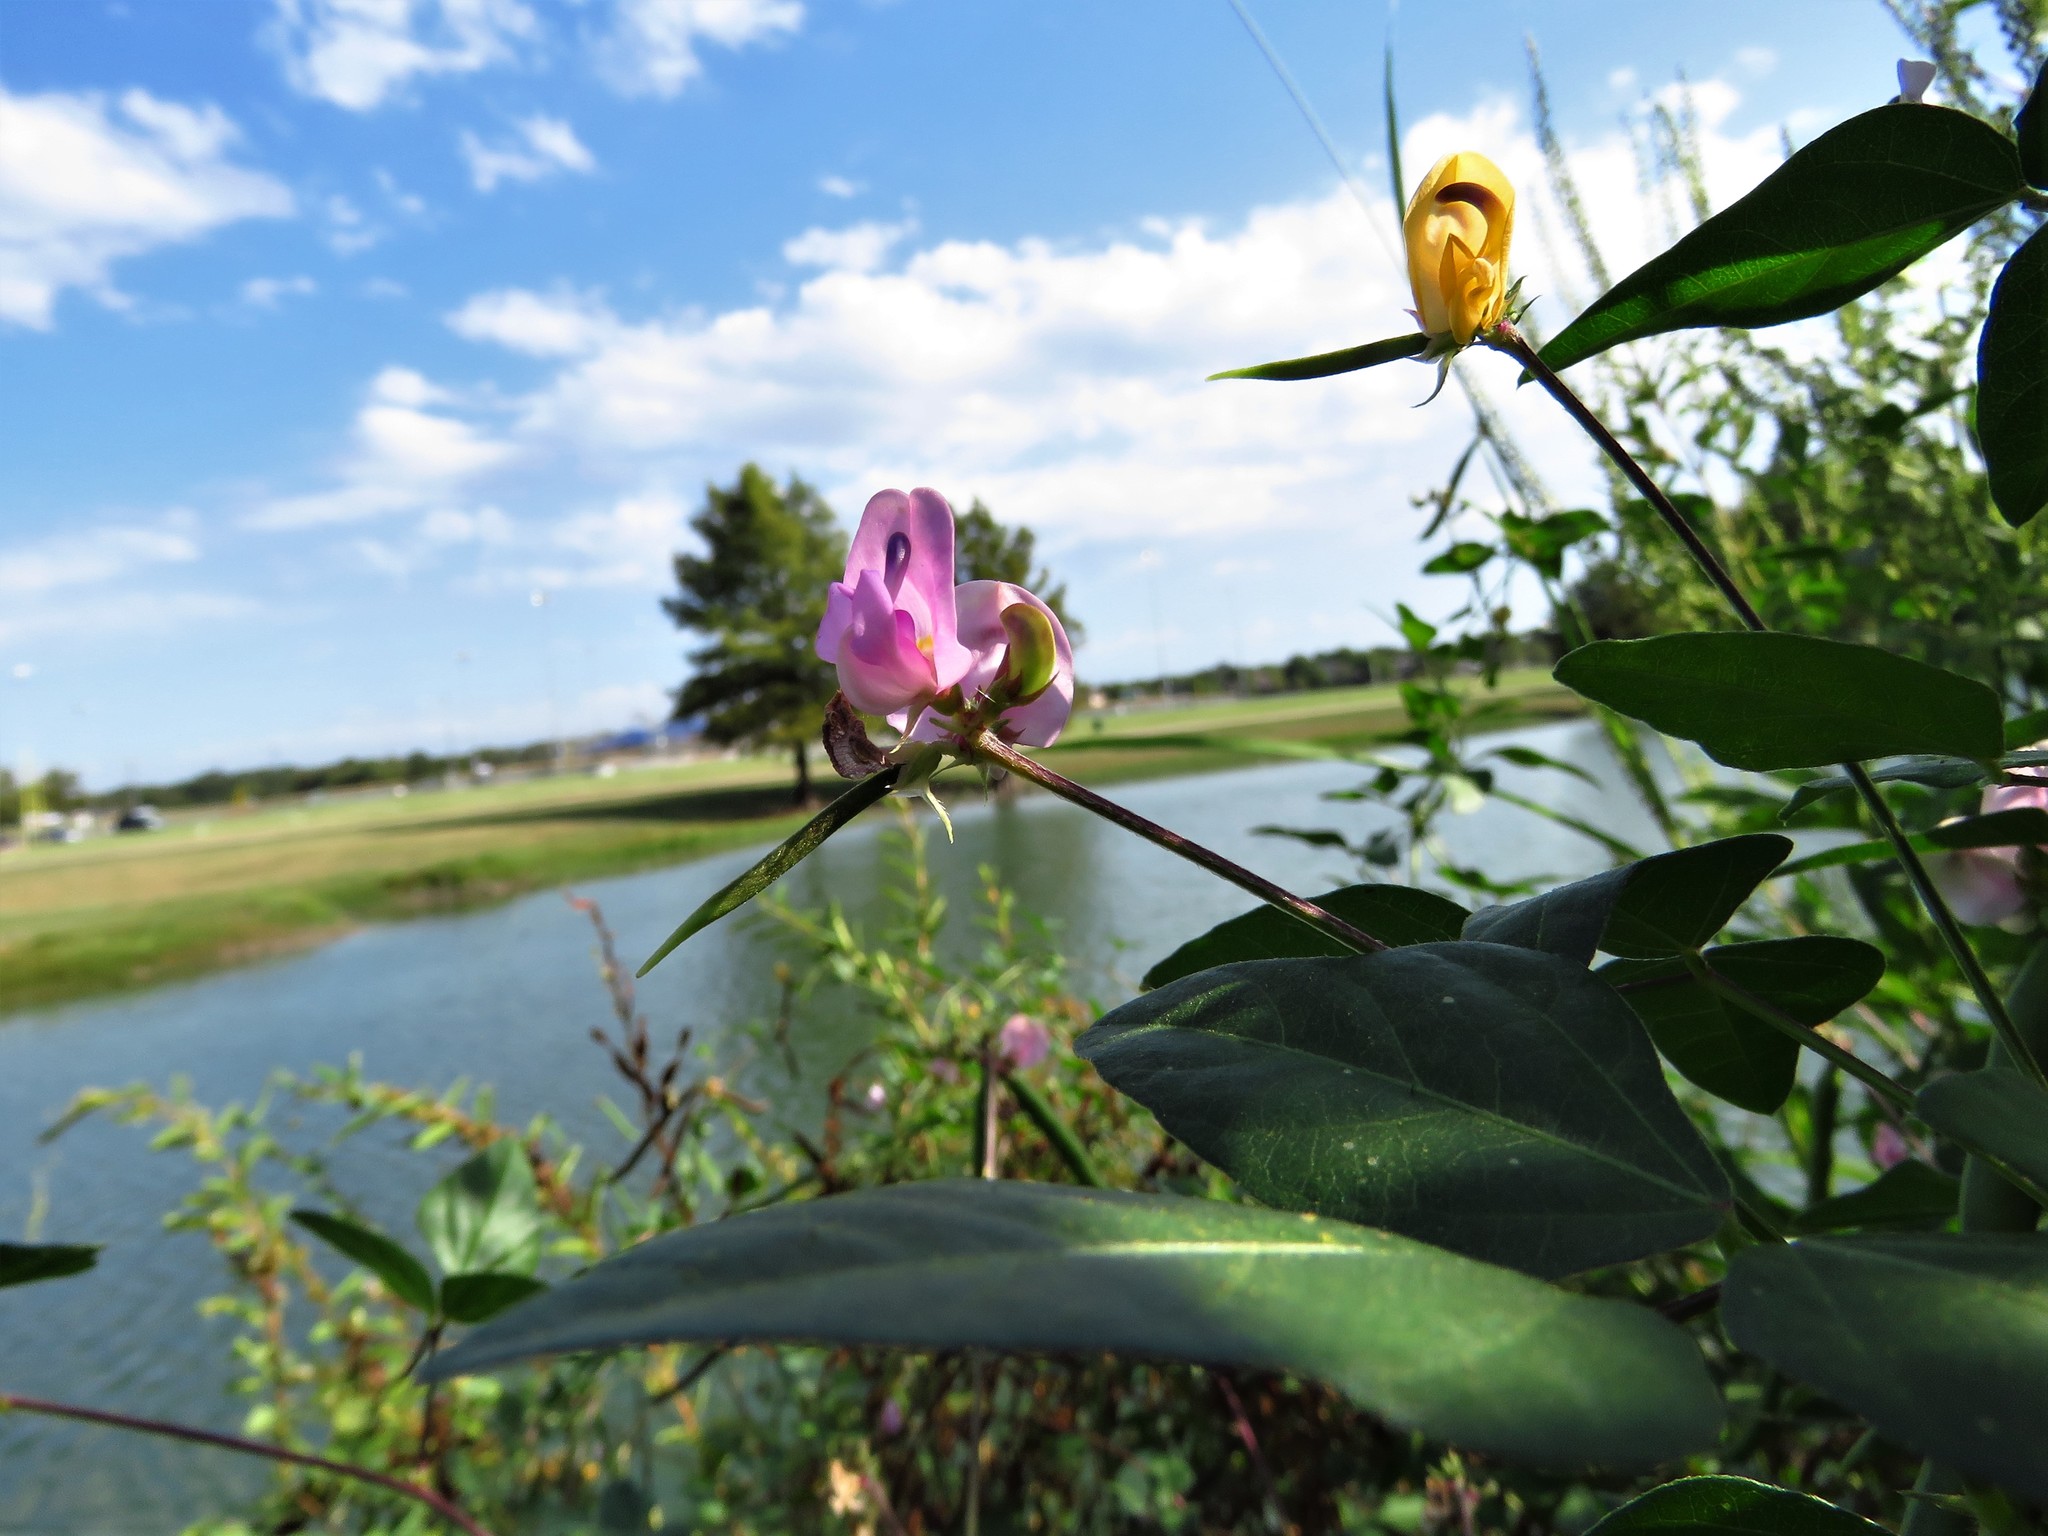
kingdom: Plantae
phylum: Tracheophyta
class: Magnoliopsida
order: Fabales
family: Fabaceae
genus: Strophostyles
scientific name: Strophostyles helvola
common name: Trailing wild bean
